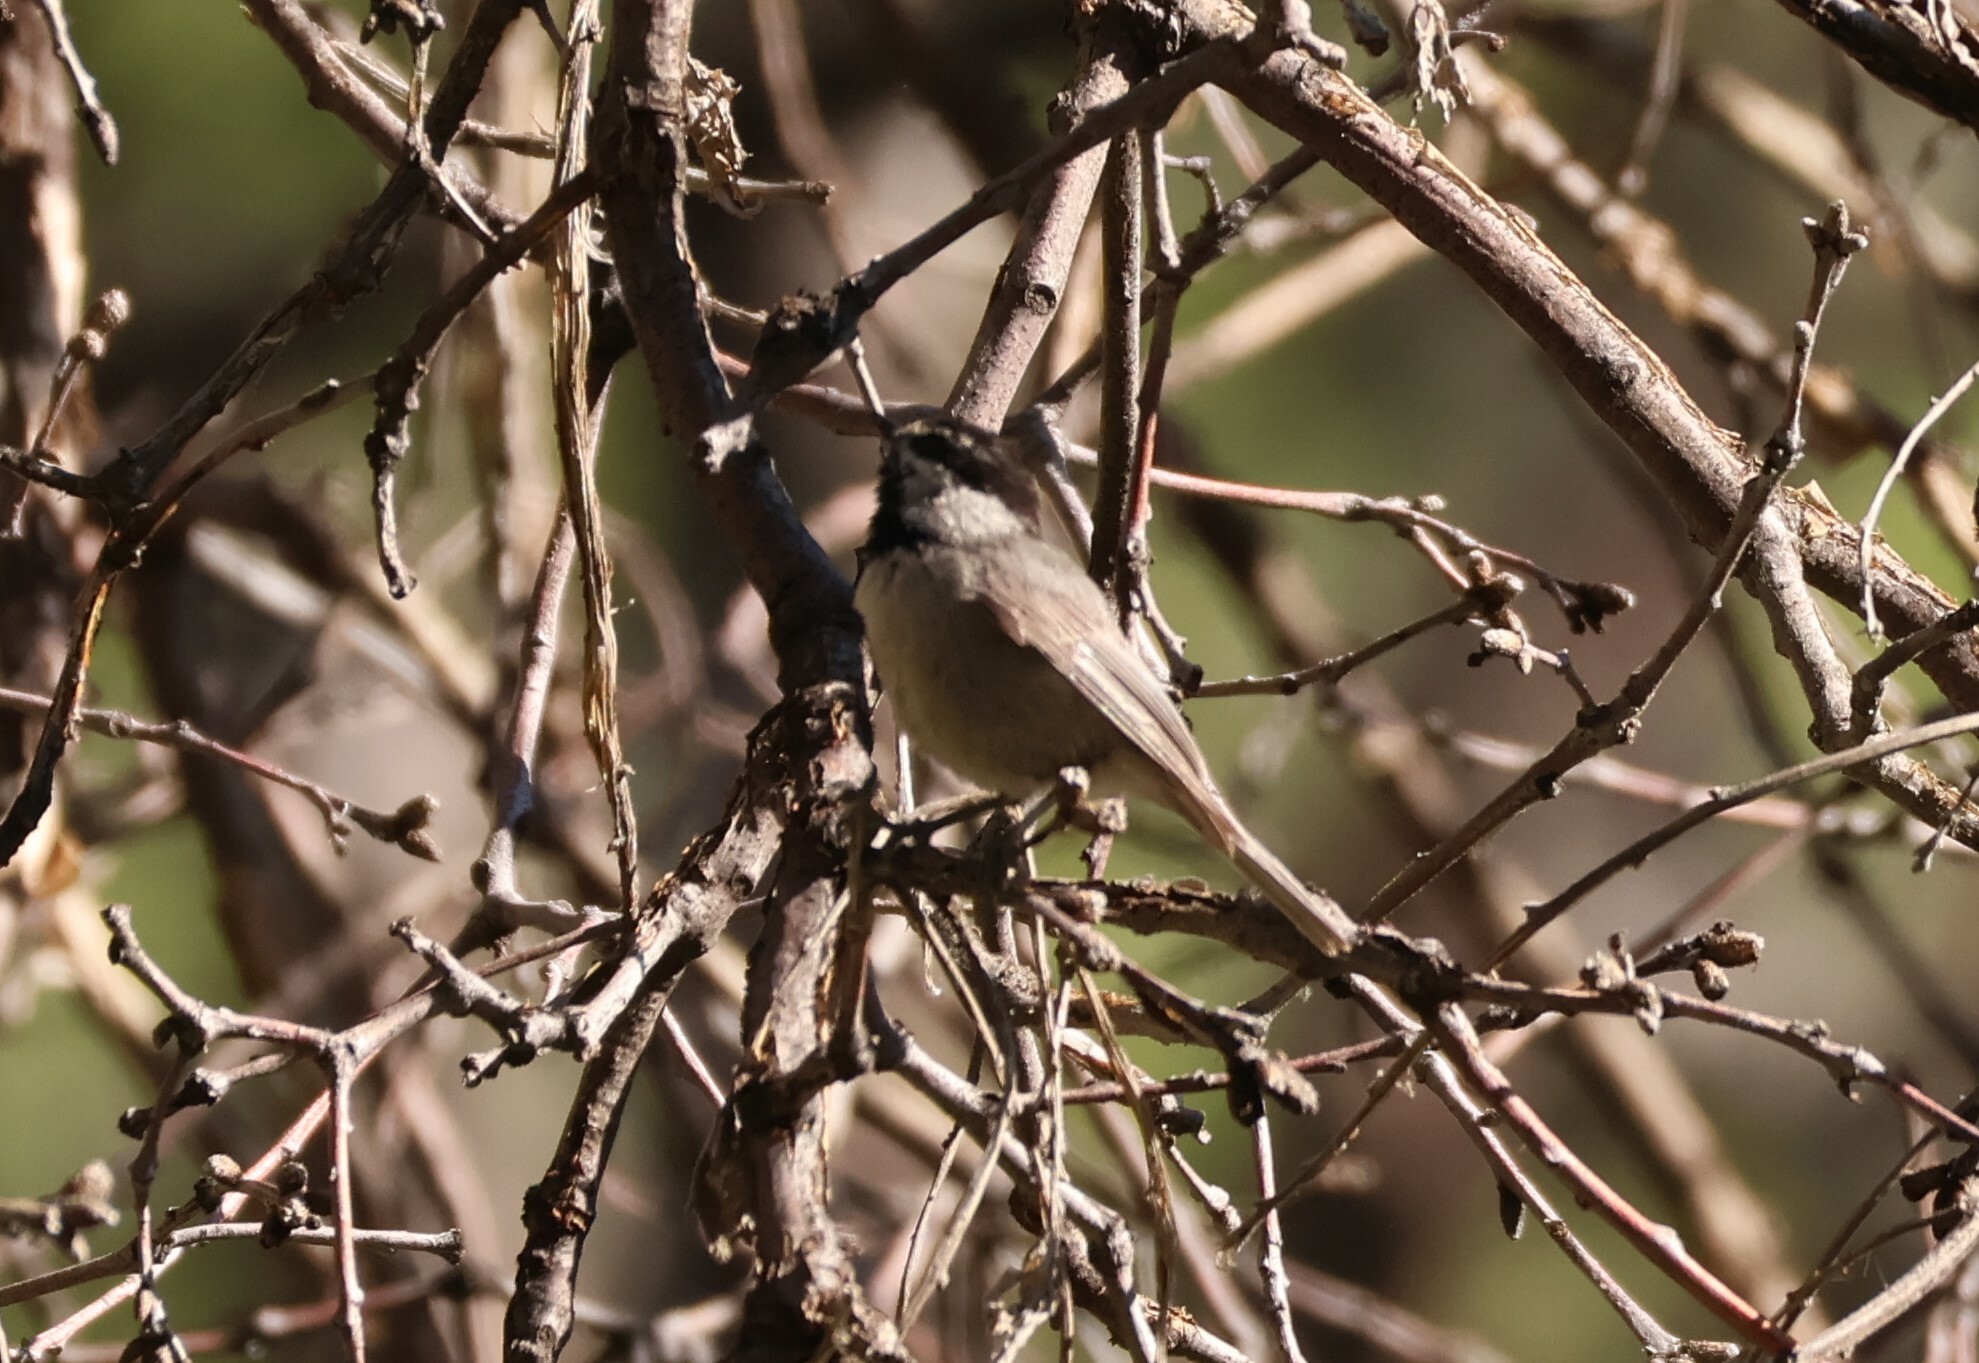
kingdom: Animalia
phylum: Chordata
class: Aves
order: Passeriformes
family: Paridae
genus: Poecile
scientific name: Poecile gambeli
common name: Mountain chickadee
